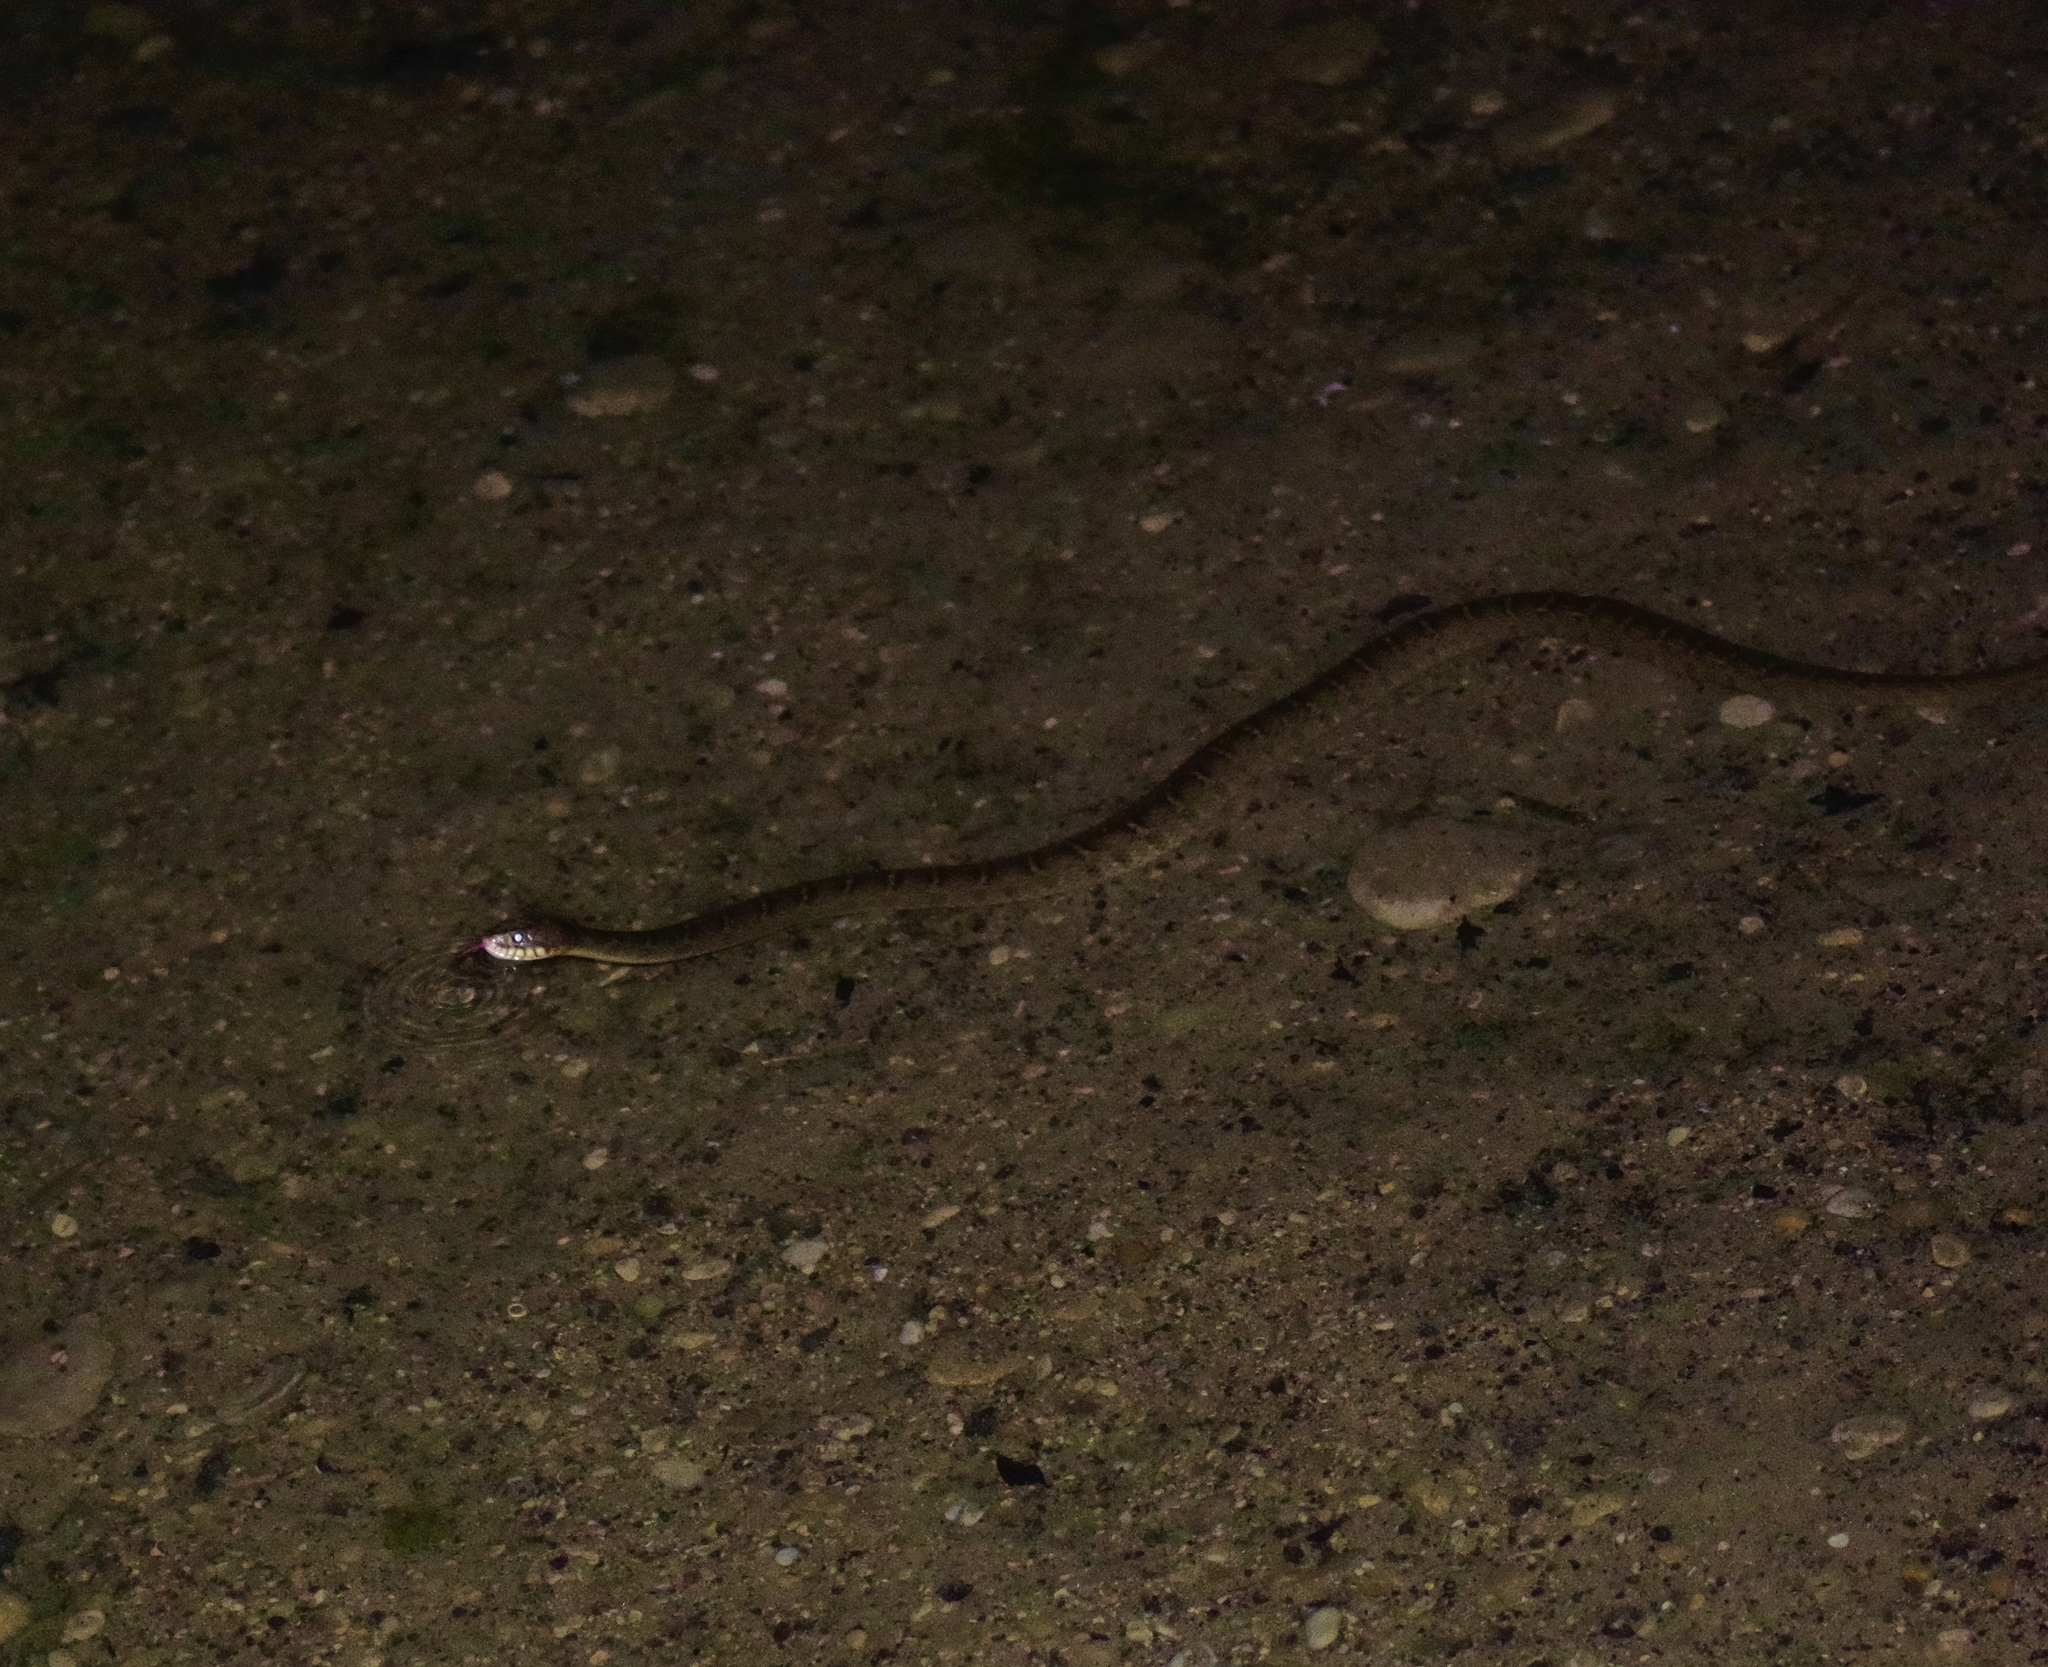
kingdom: Animalia
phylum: Chordata
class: Squamata
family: Colubridae
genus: Nerodia
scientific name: Nerodia erythrogaster
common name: Plainbelly water snake
